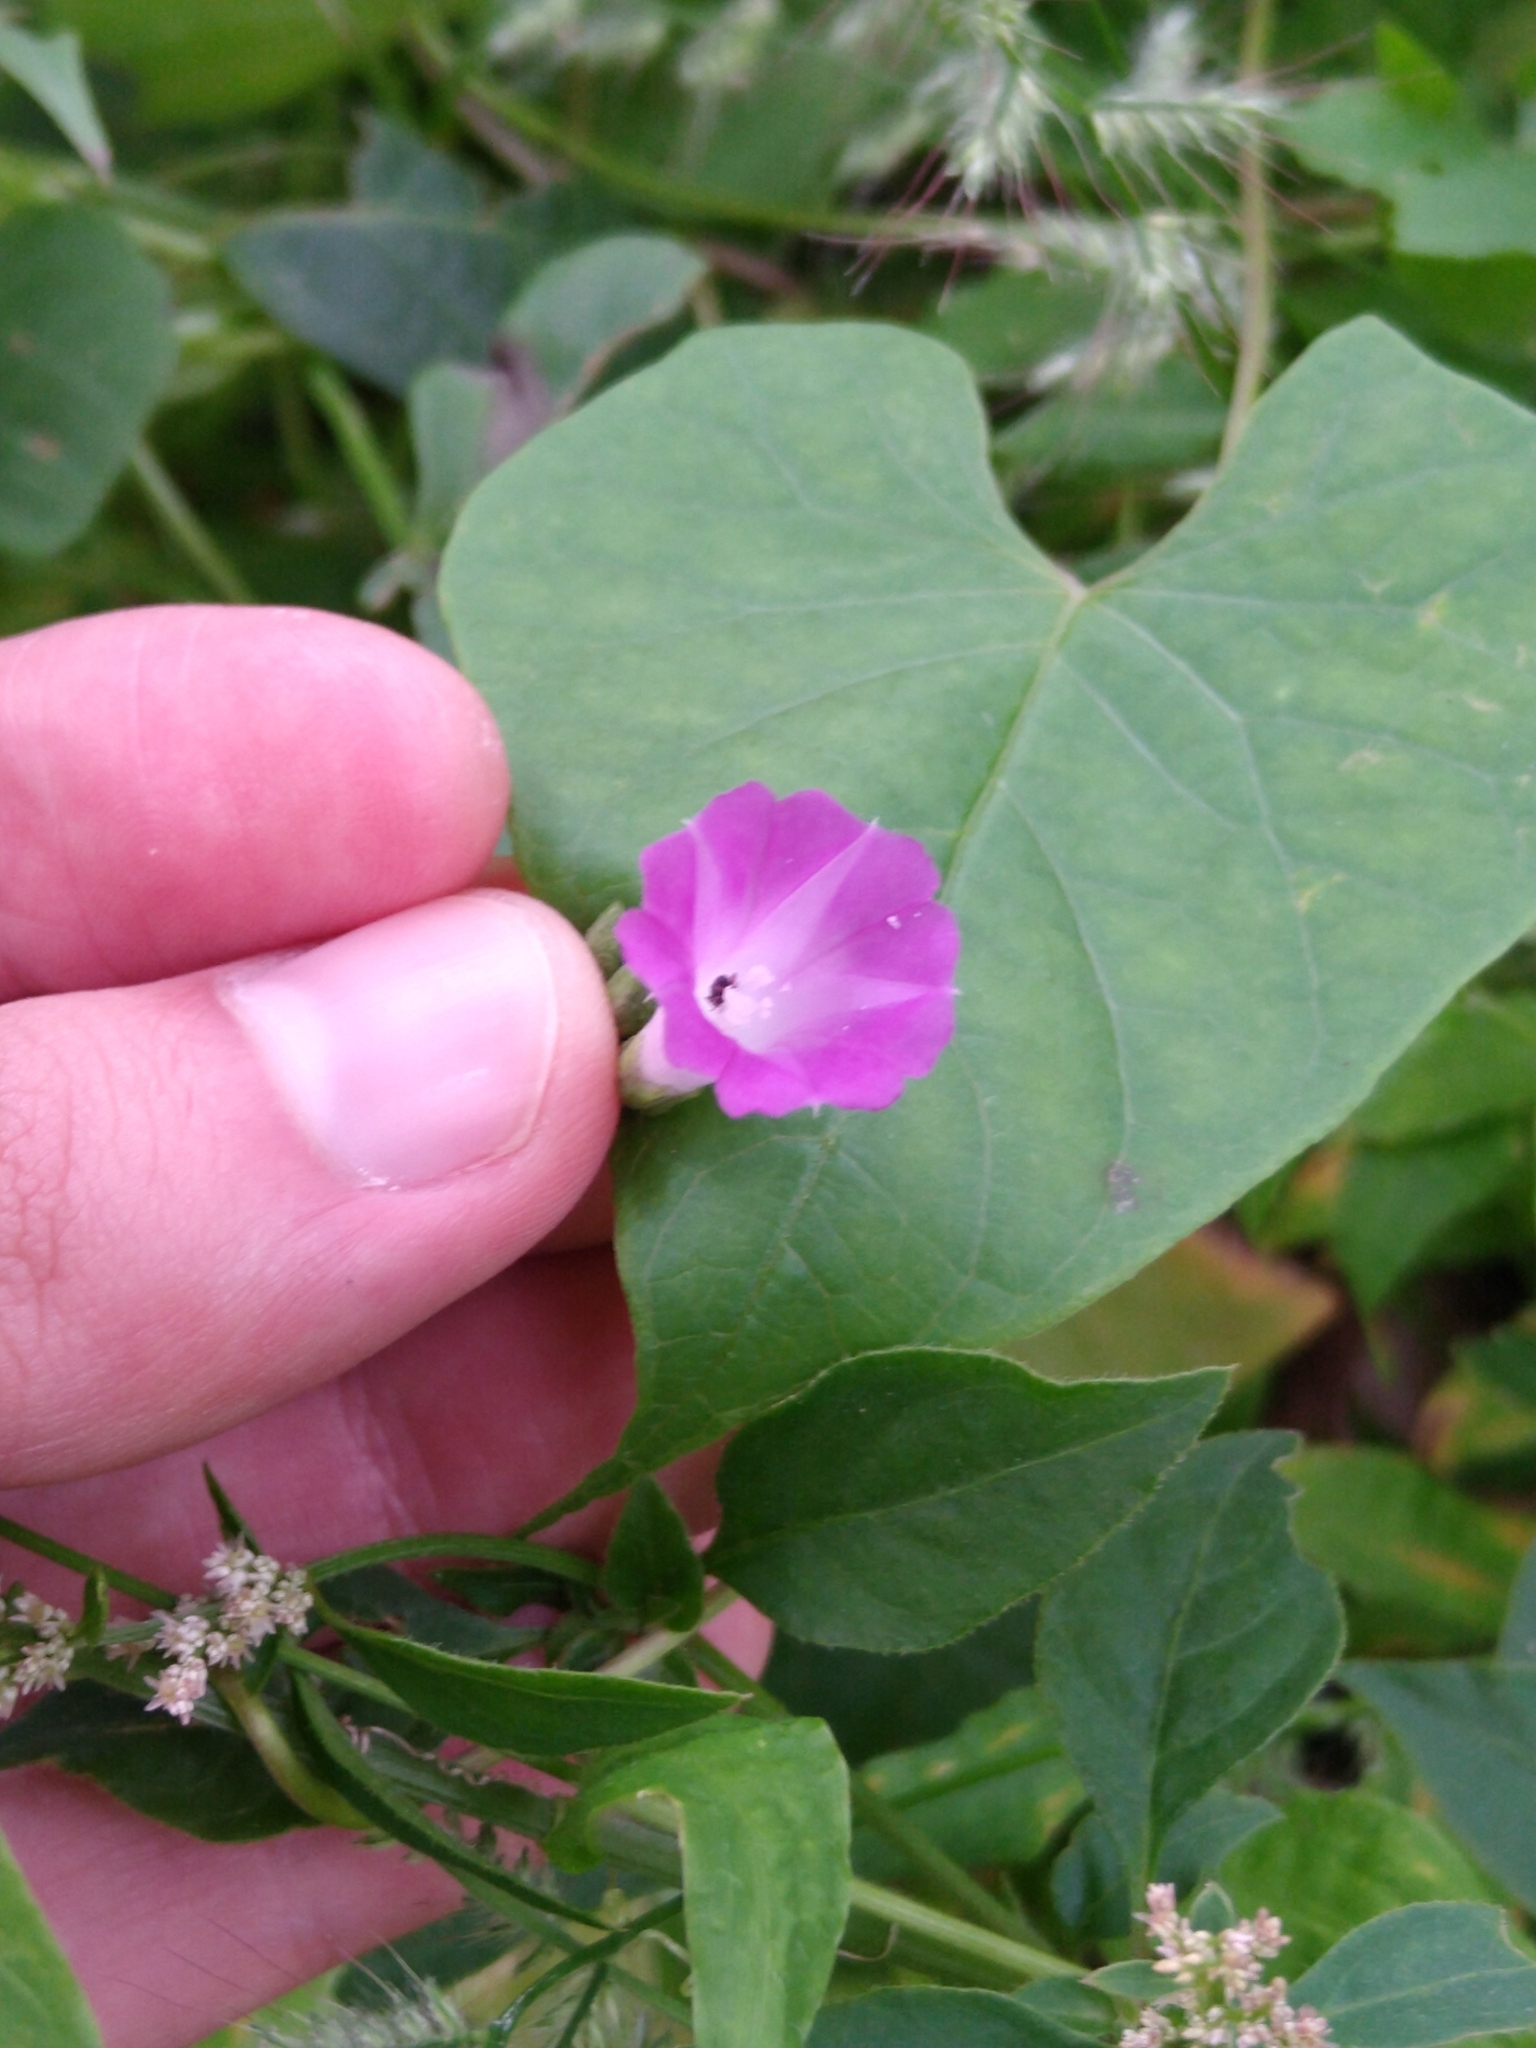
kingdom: Plantae
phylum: Tracheophyta
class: Magnoliopsida
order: Solanales
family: Convolvulaceae
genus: Ipomoea
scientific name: Ipomoea dumetorum
